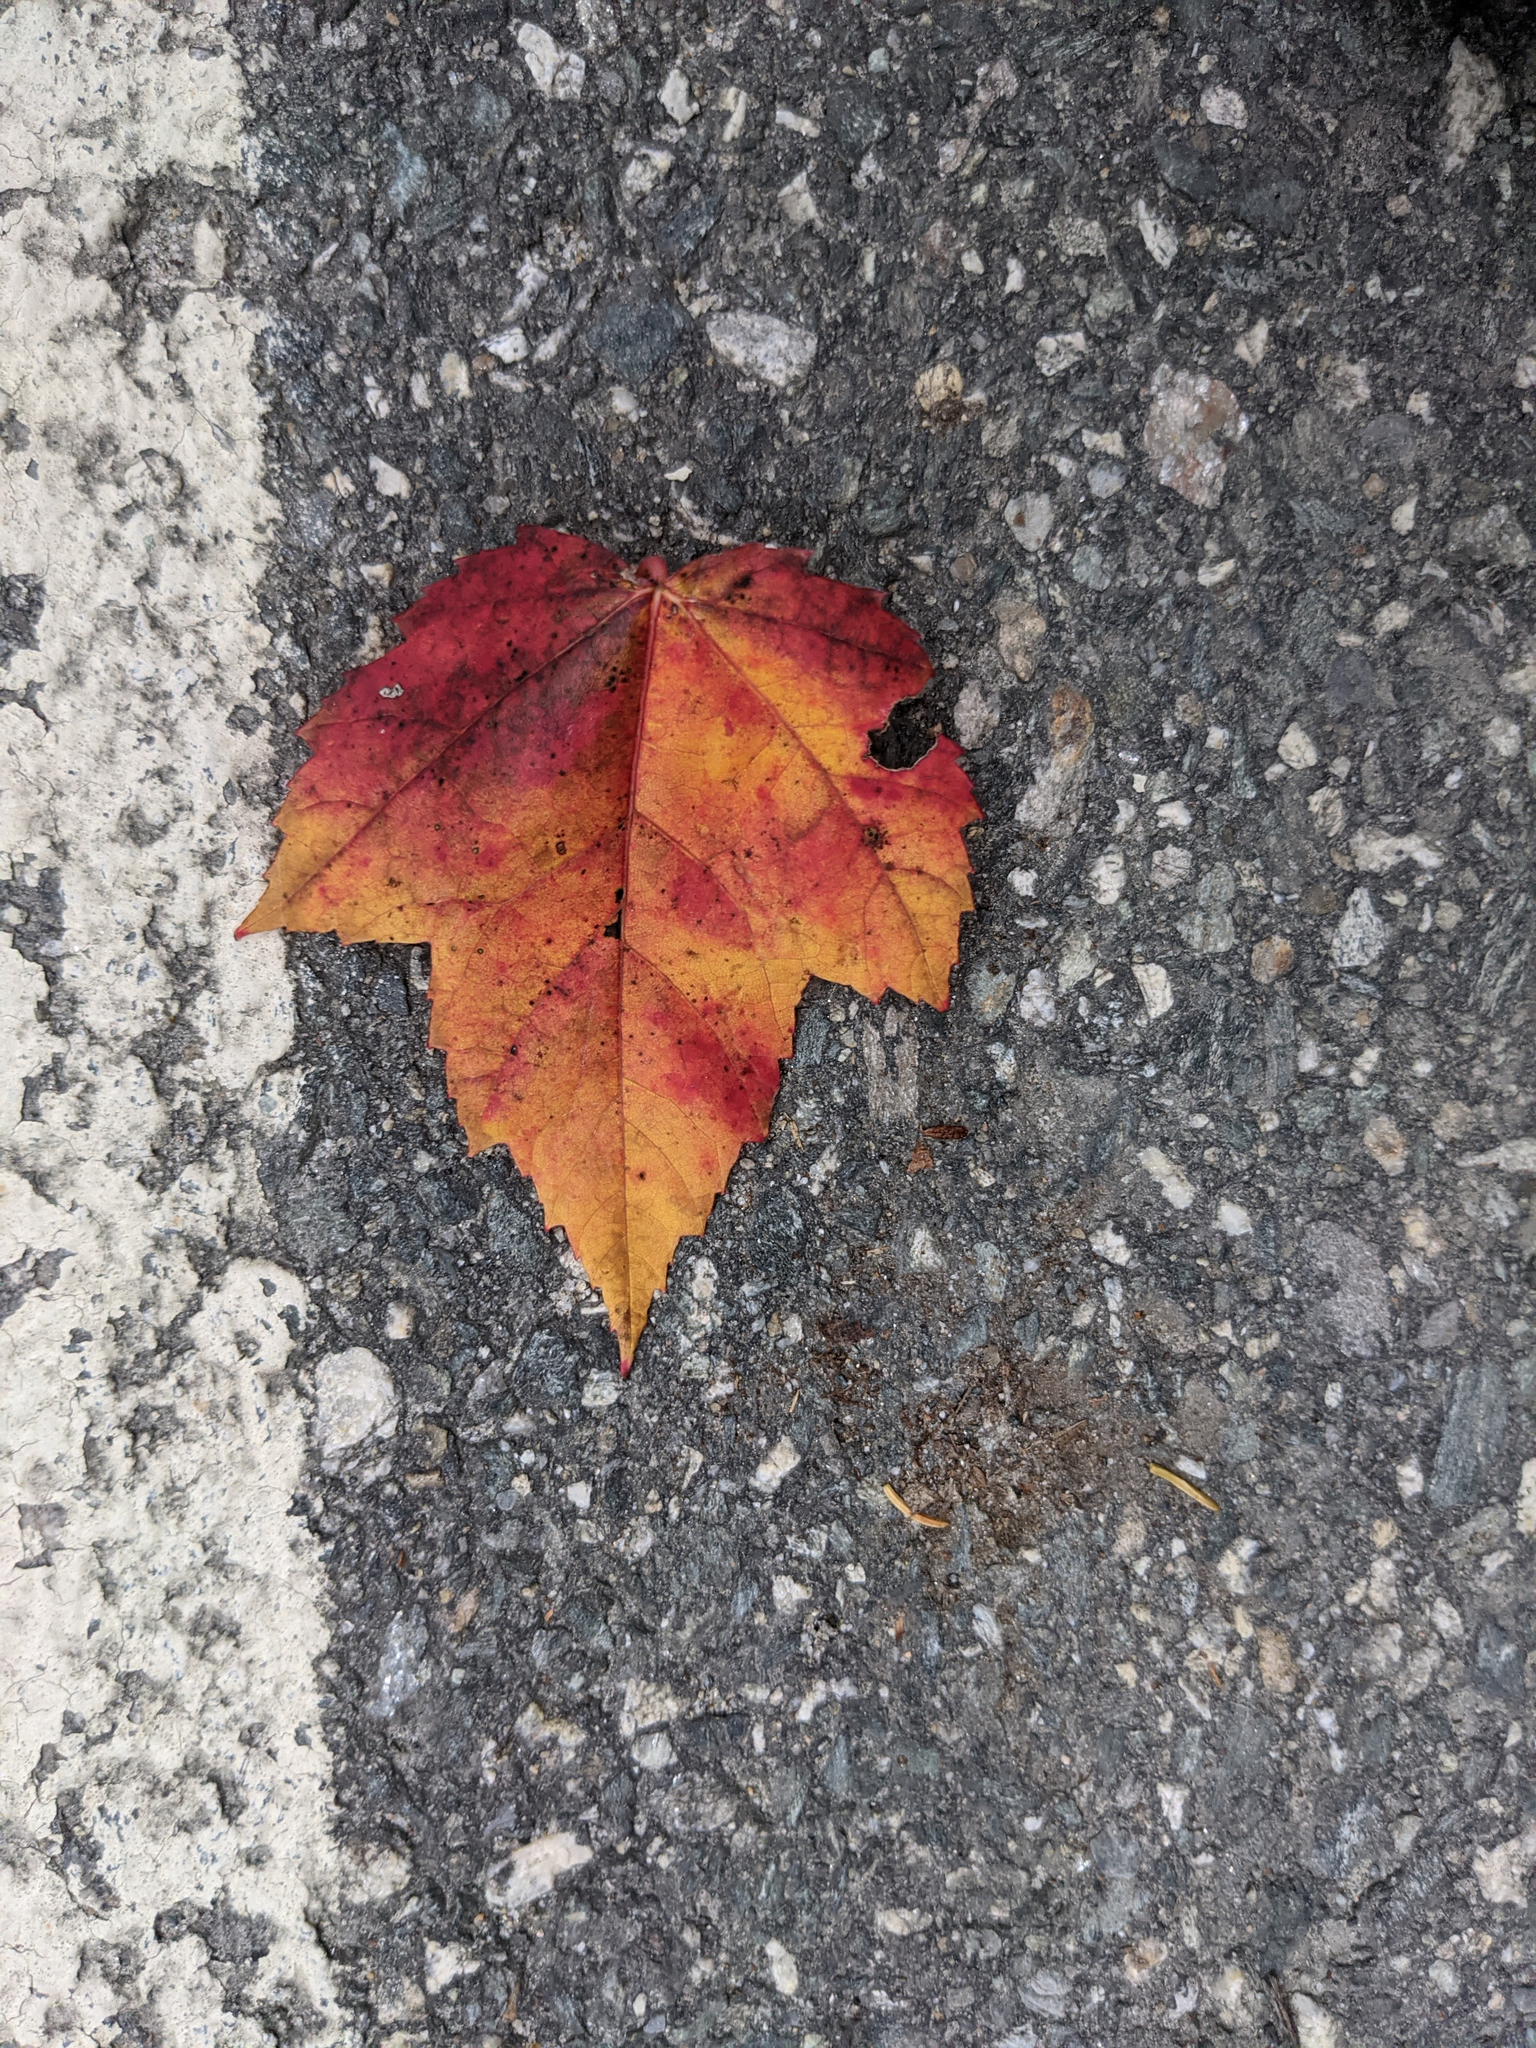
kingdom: Plantae
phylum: Tracheophyta
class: Magnoliopsida
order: Sapindales
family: Sapindaceae
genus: Acer
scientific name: Acer rubrum
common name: Red maple
